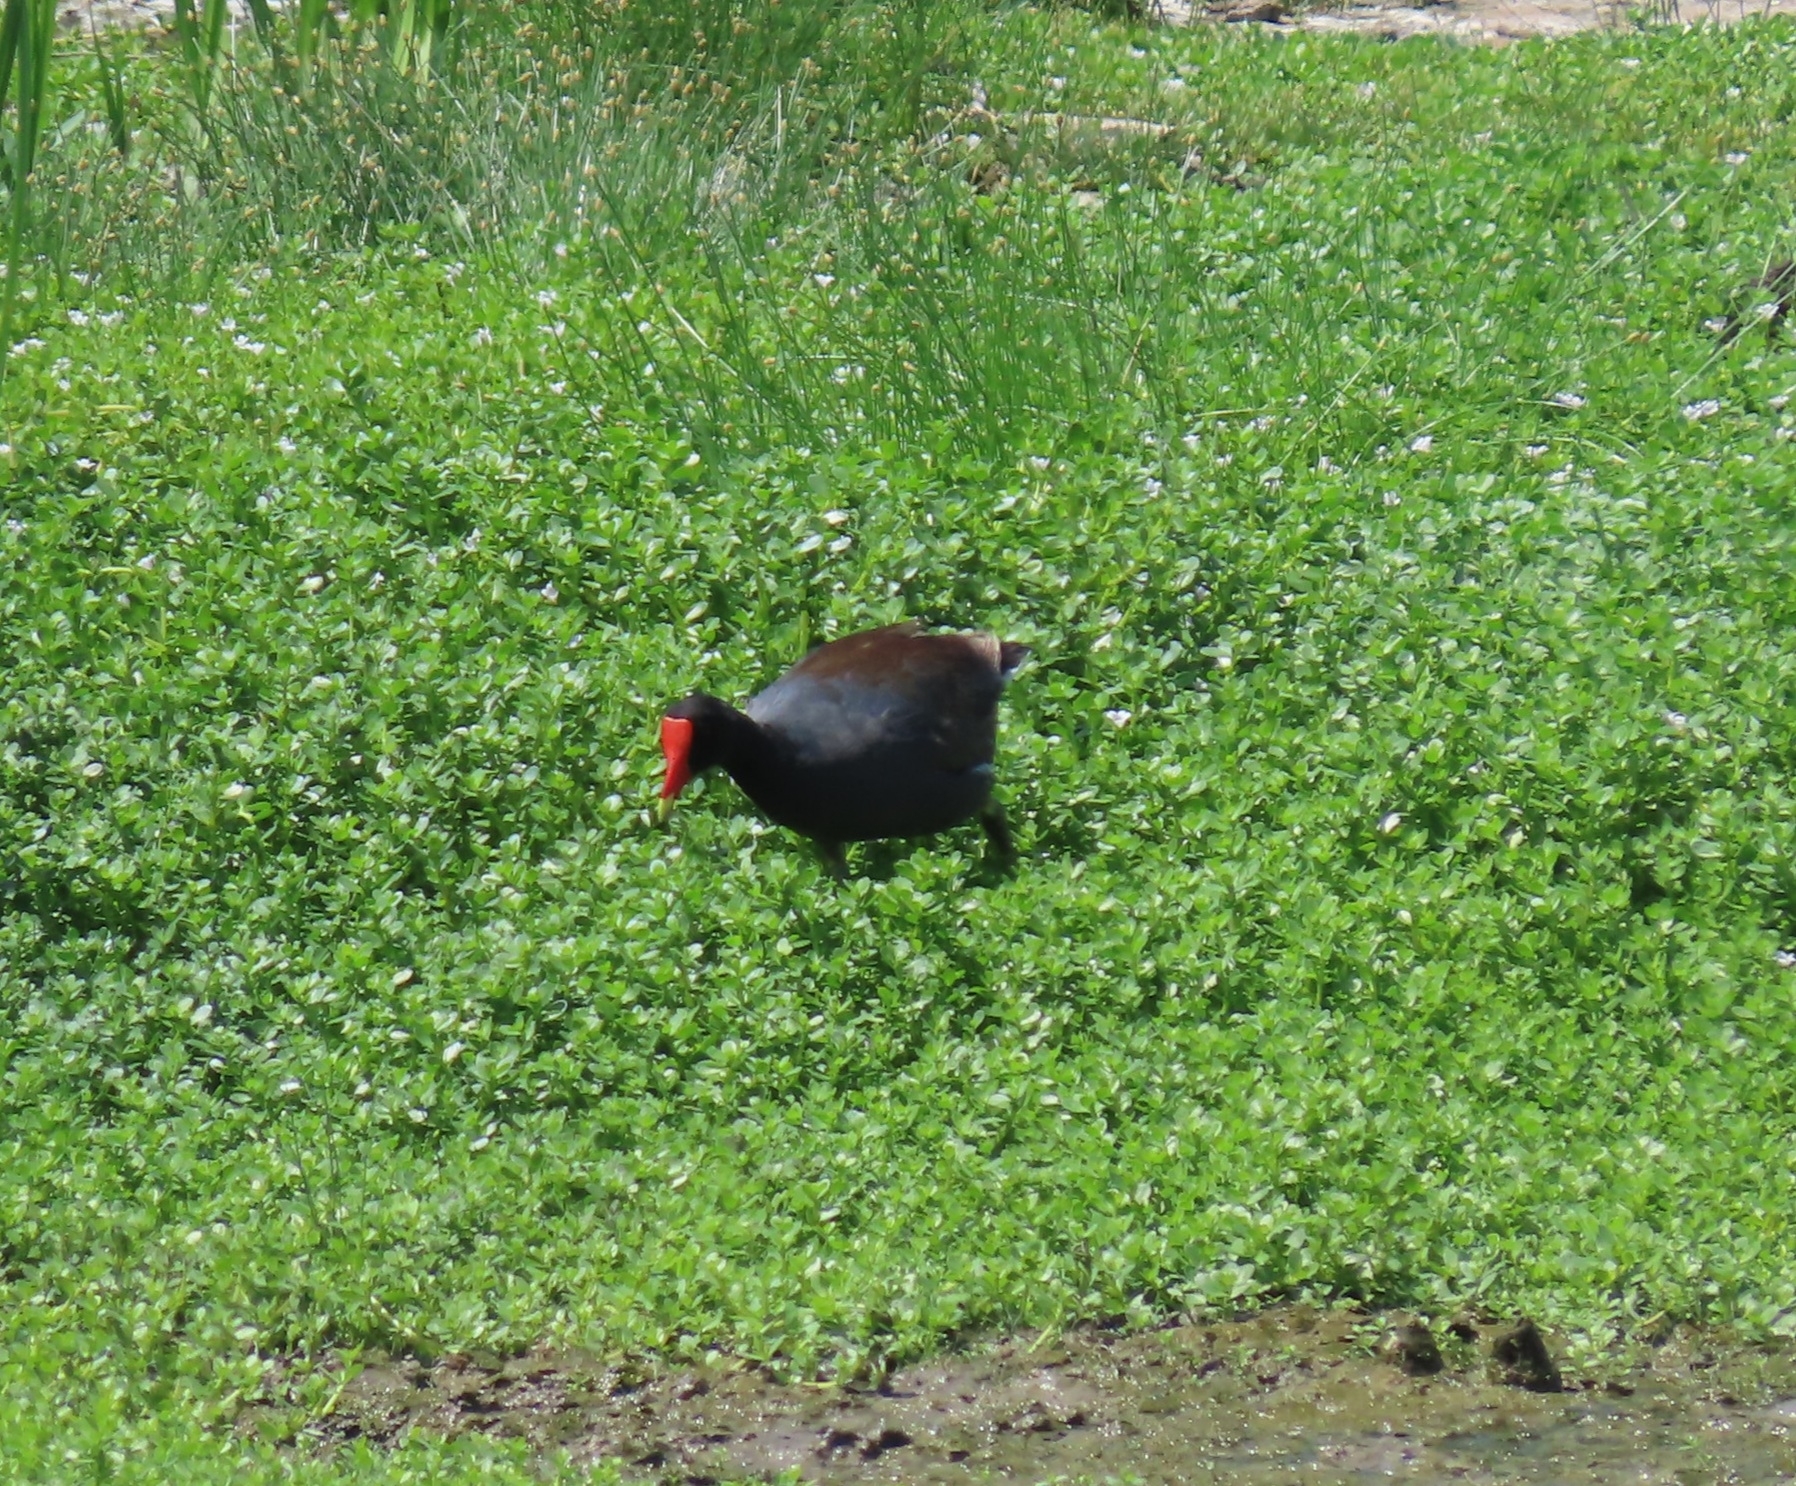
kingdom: Animalia
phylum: Chordata
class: Aves
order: Gruiformes
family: Rallidae
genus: Gallinula
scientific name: Gallinula chloropus
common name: Common moorhen
